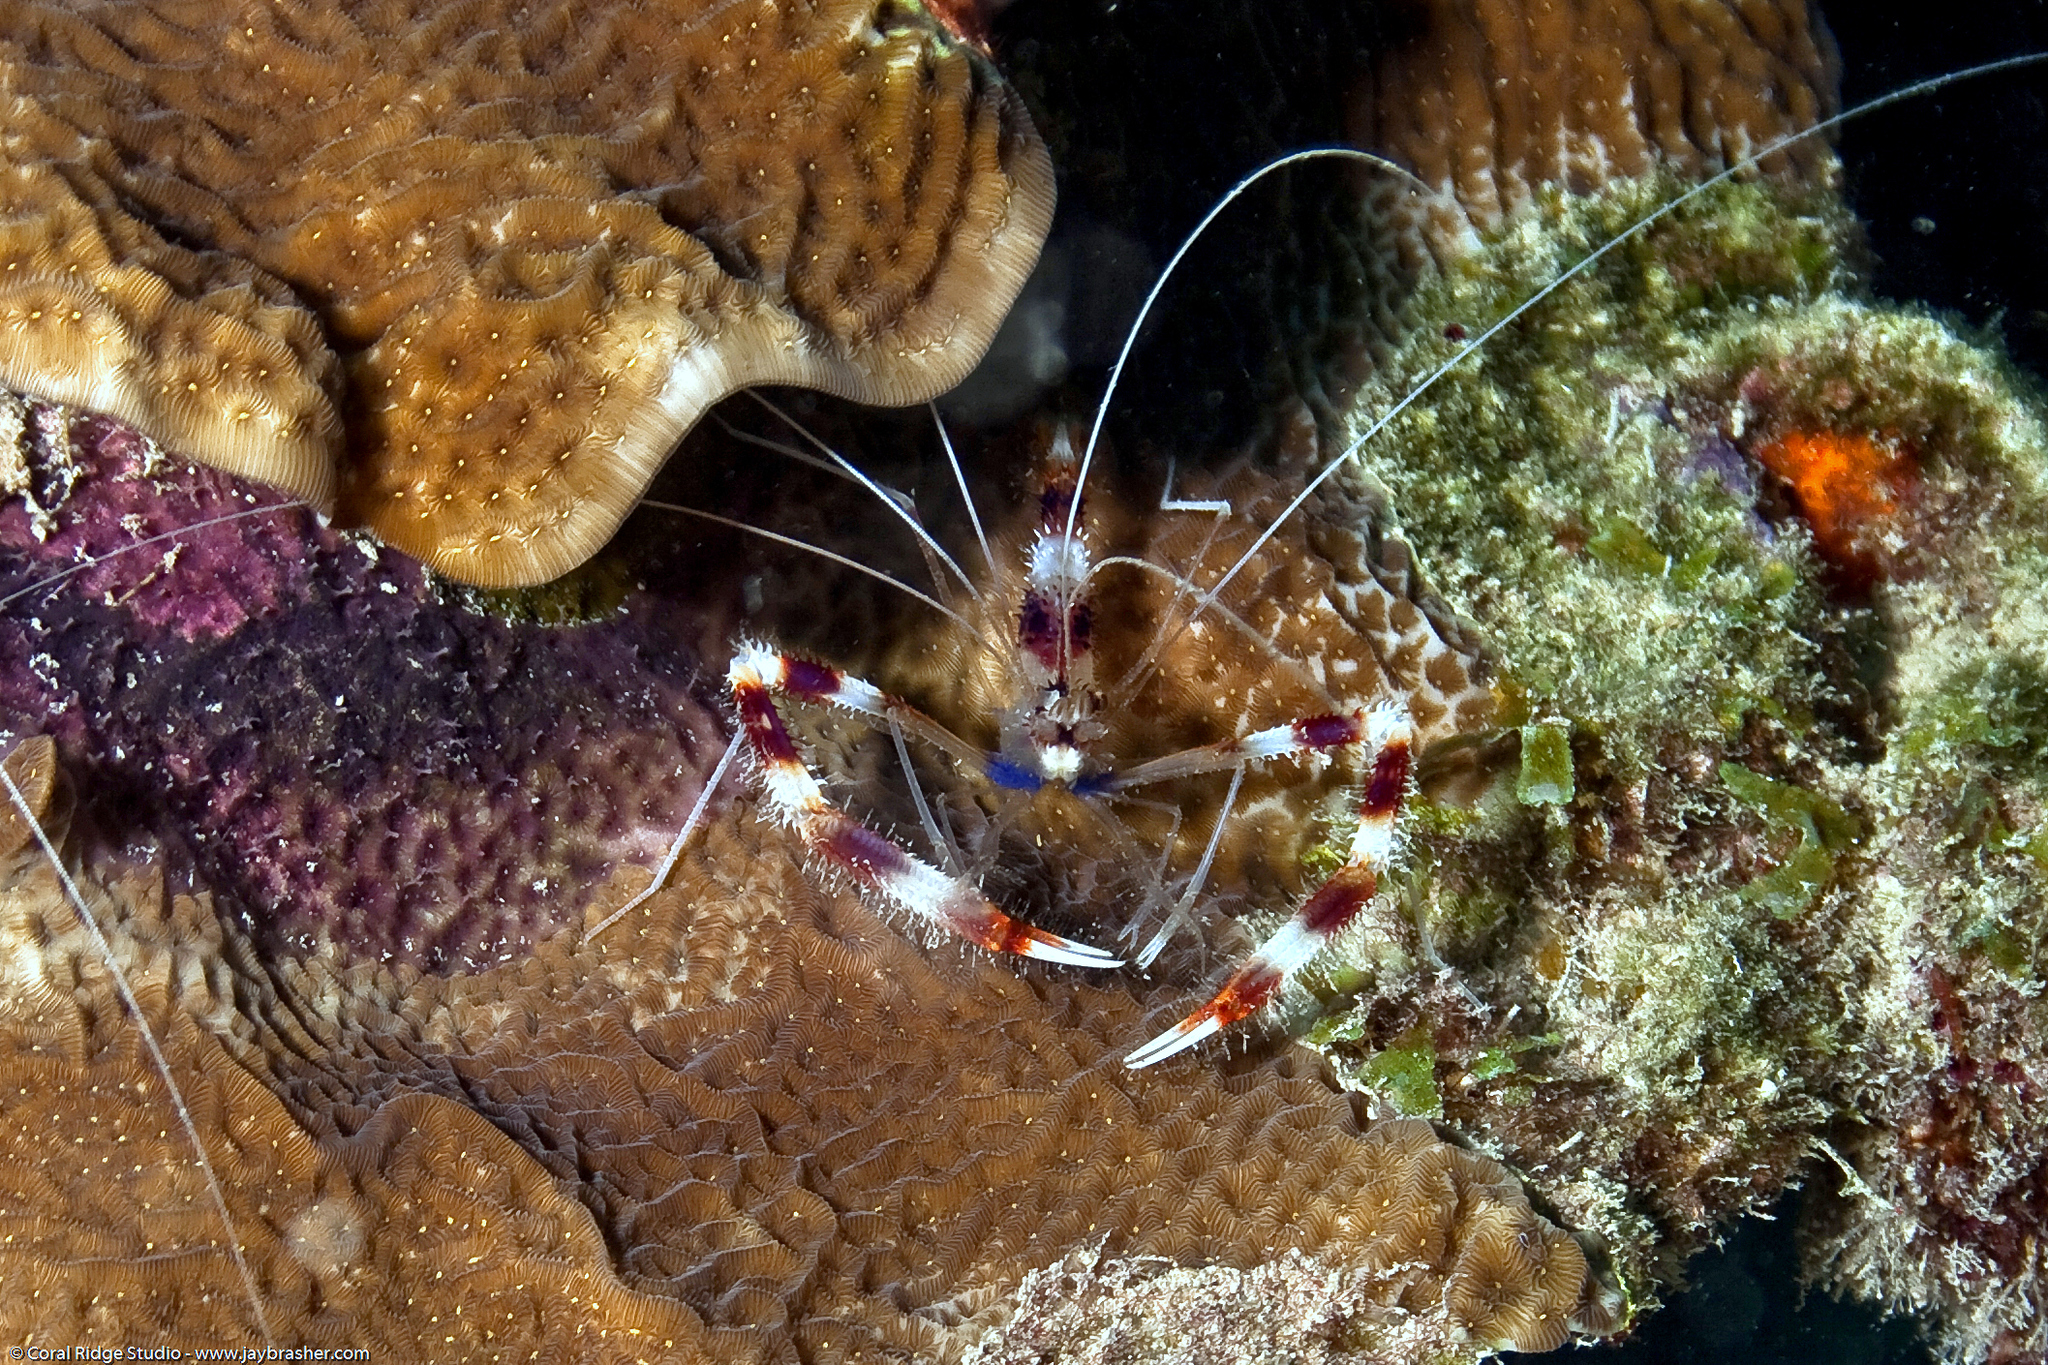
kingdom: Animalia
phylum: Arthropoda
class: Malacostraca
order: Decapoda
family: Stenopodidae
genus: Stenopus
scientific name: Stenopus hispidus
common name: Banded coral shrimp
